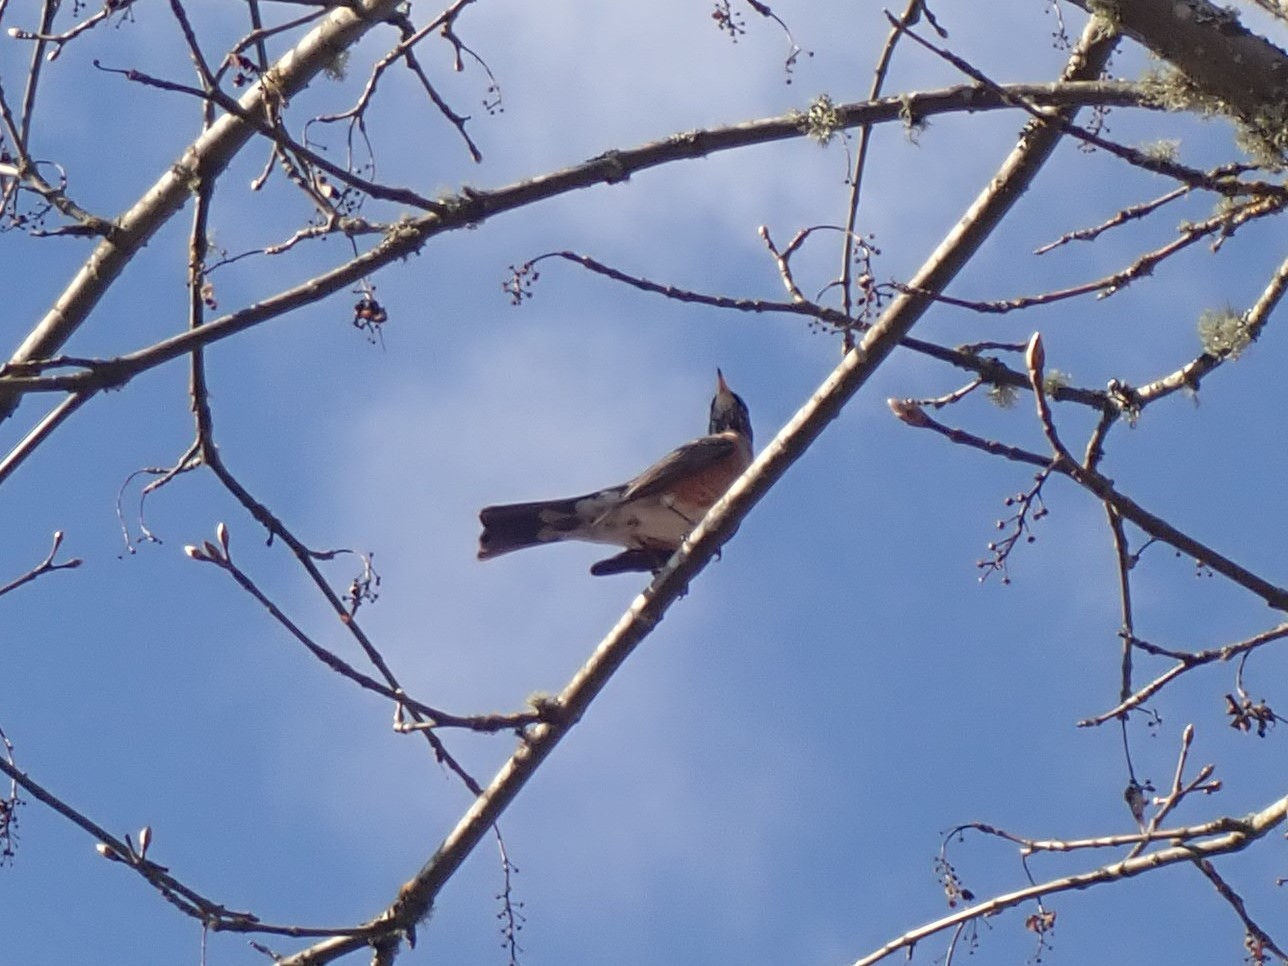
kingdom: Animalia
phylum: Chordata
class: Aves
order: Passeriformes
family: Turdidae
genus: Turdus
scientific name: Turdus migratorius
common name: American robin
